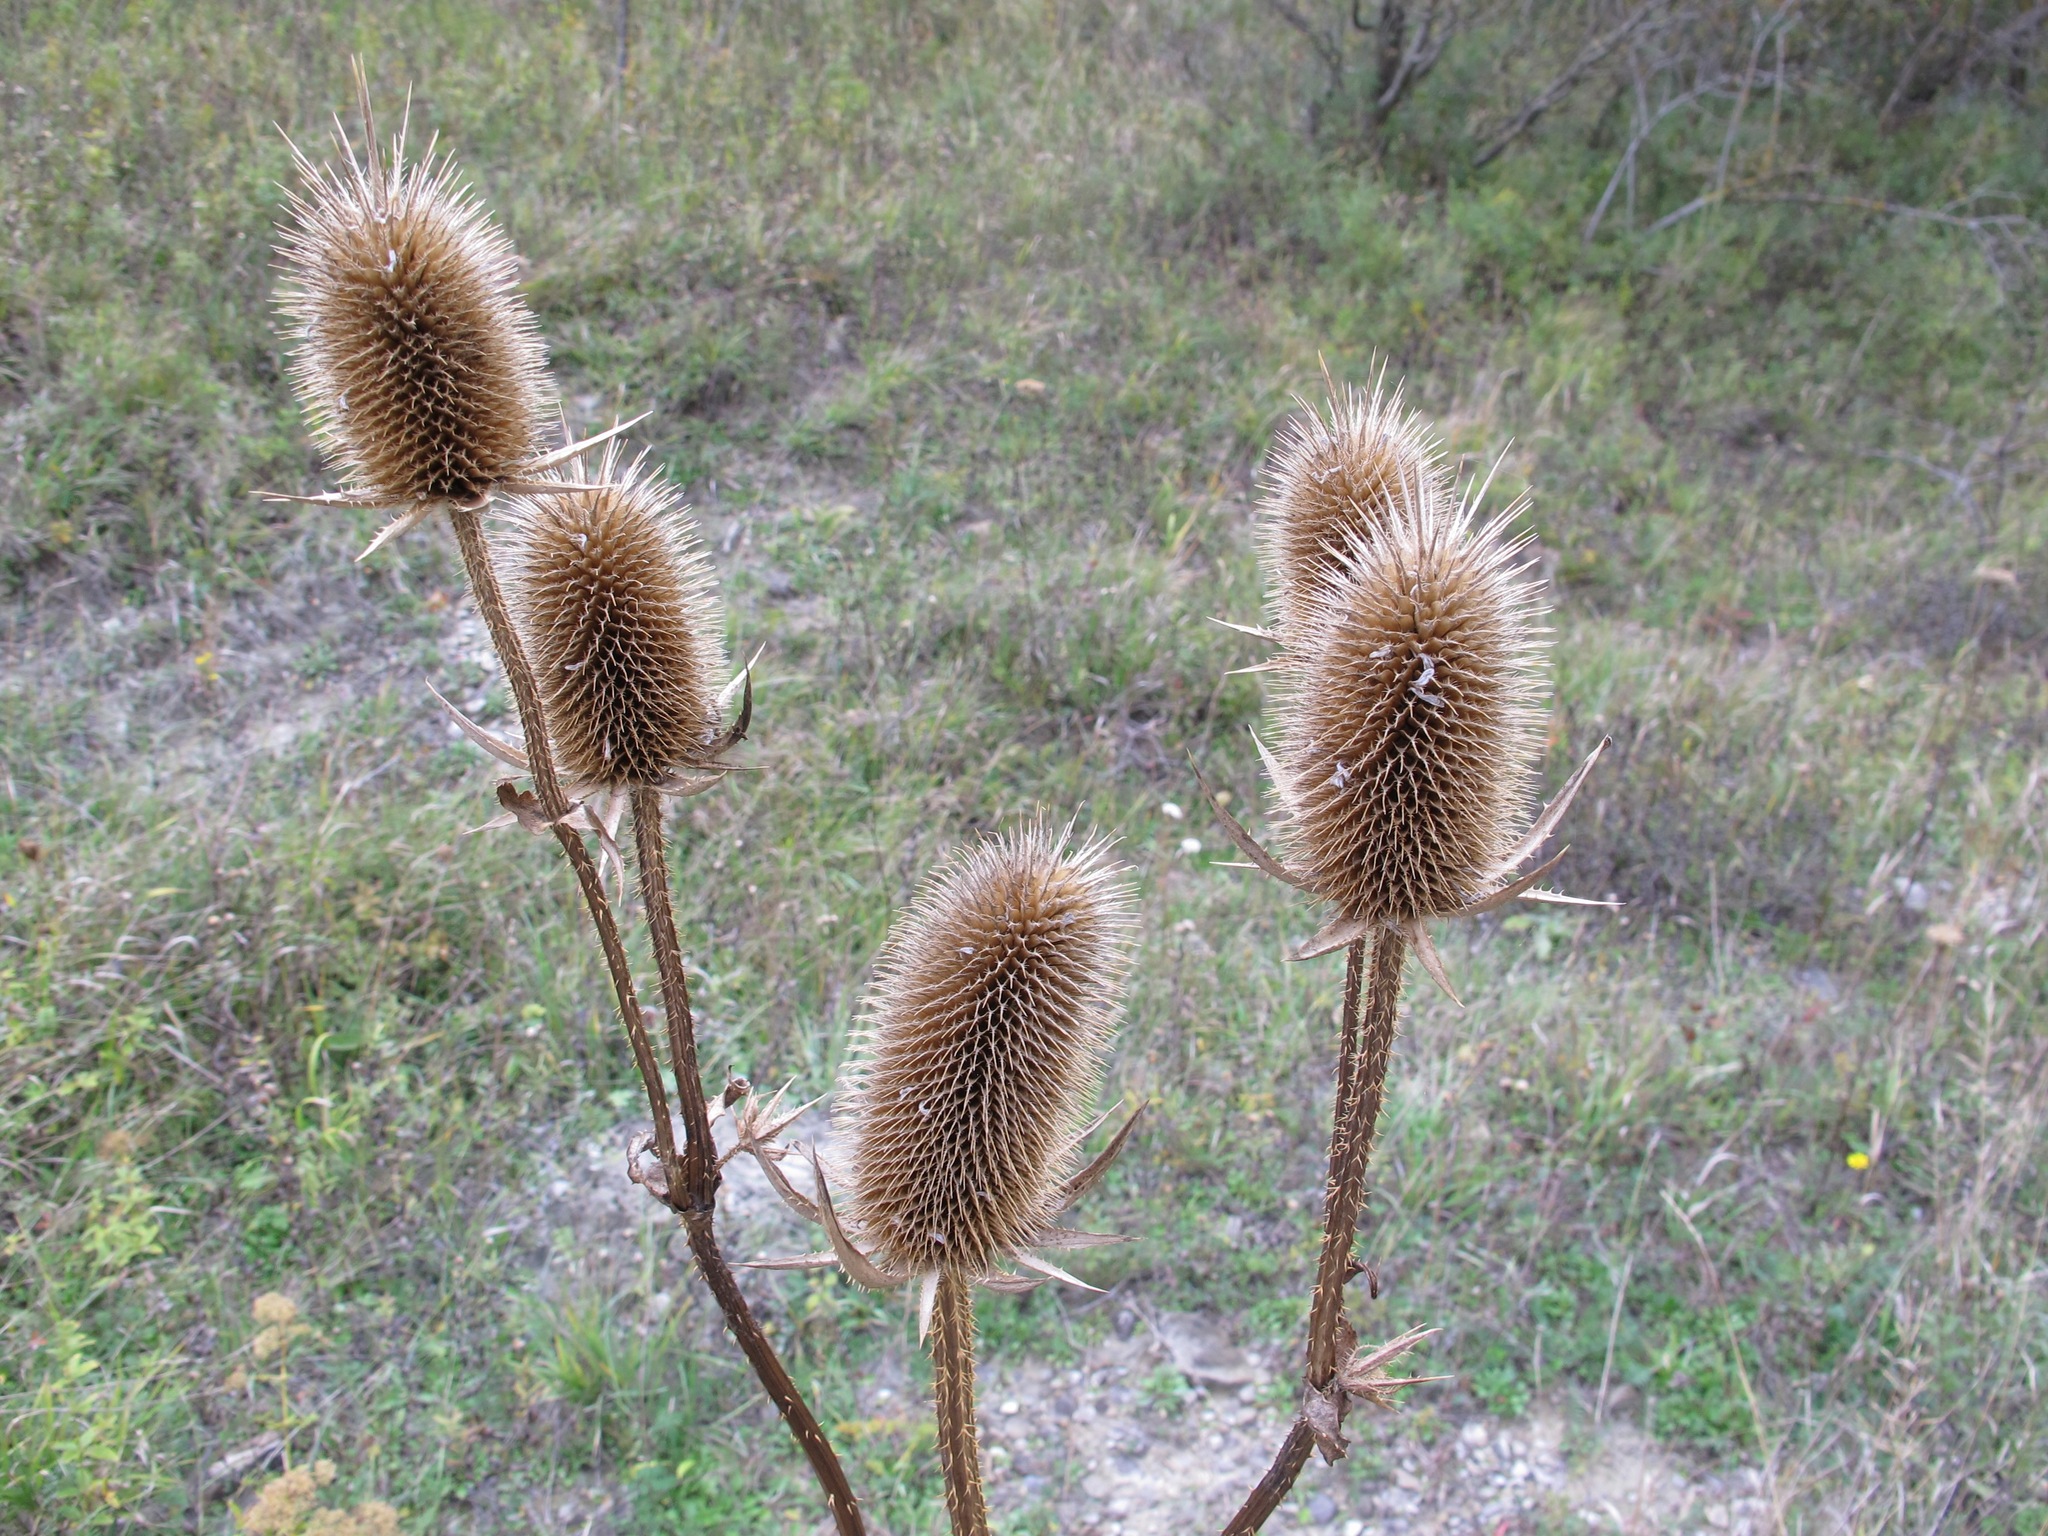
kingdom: Plantae
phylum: Tracheophyta
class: Magnoliopsida
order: Dipsacales
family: Caprifoliaceae
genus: Dipsacus
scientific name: Dipsacus laciniatus
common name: Cut-leaved teasel
